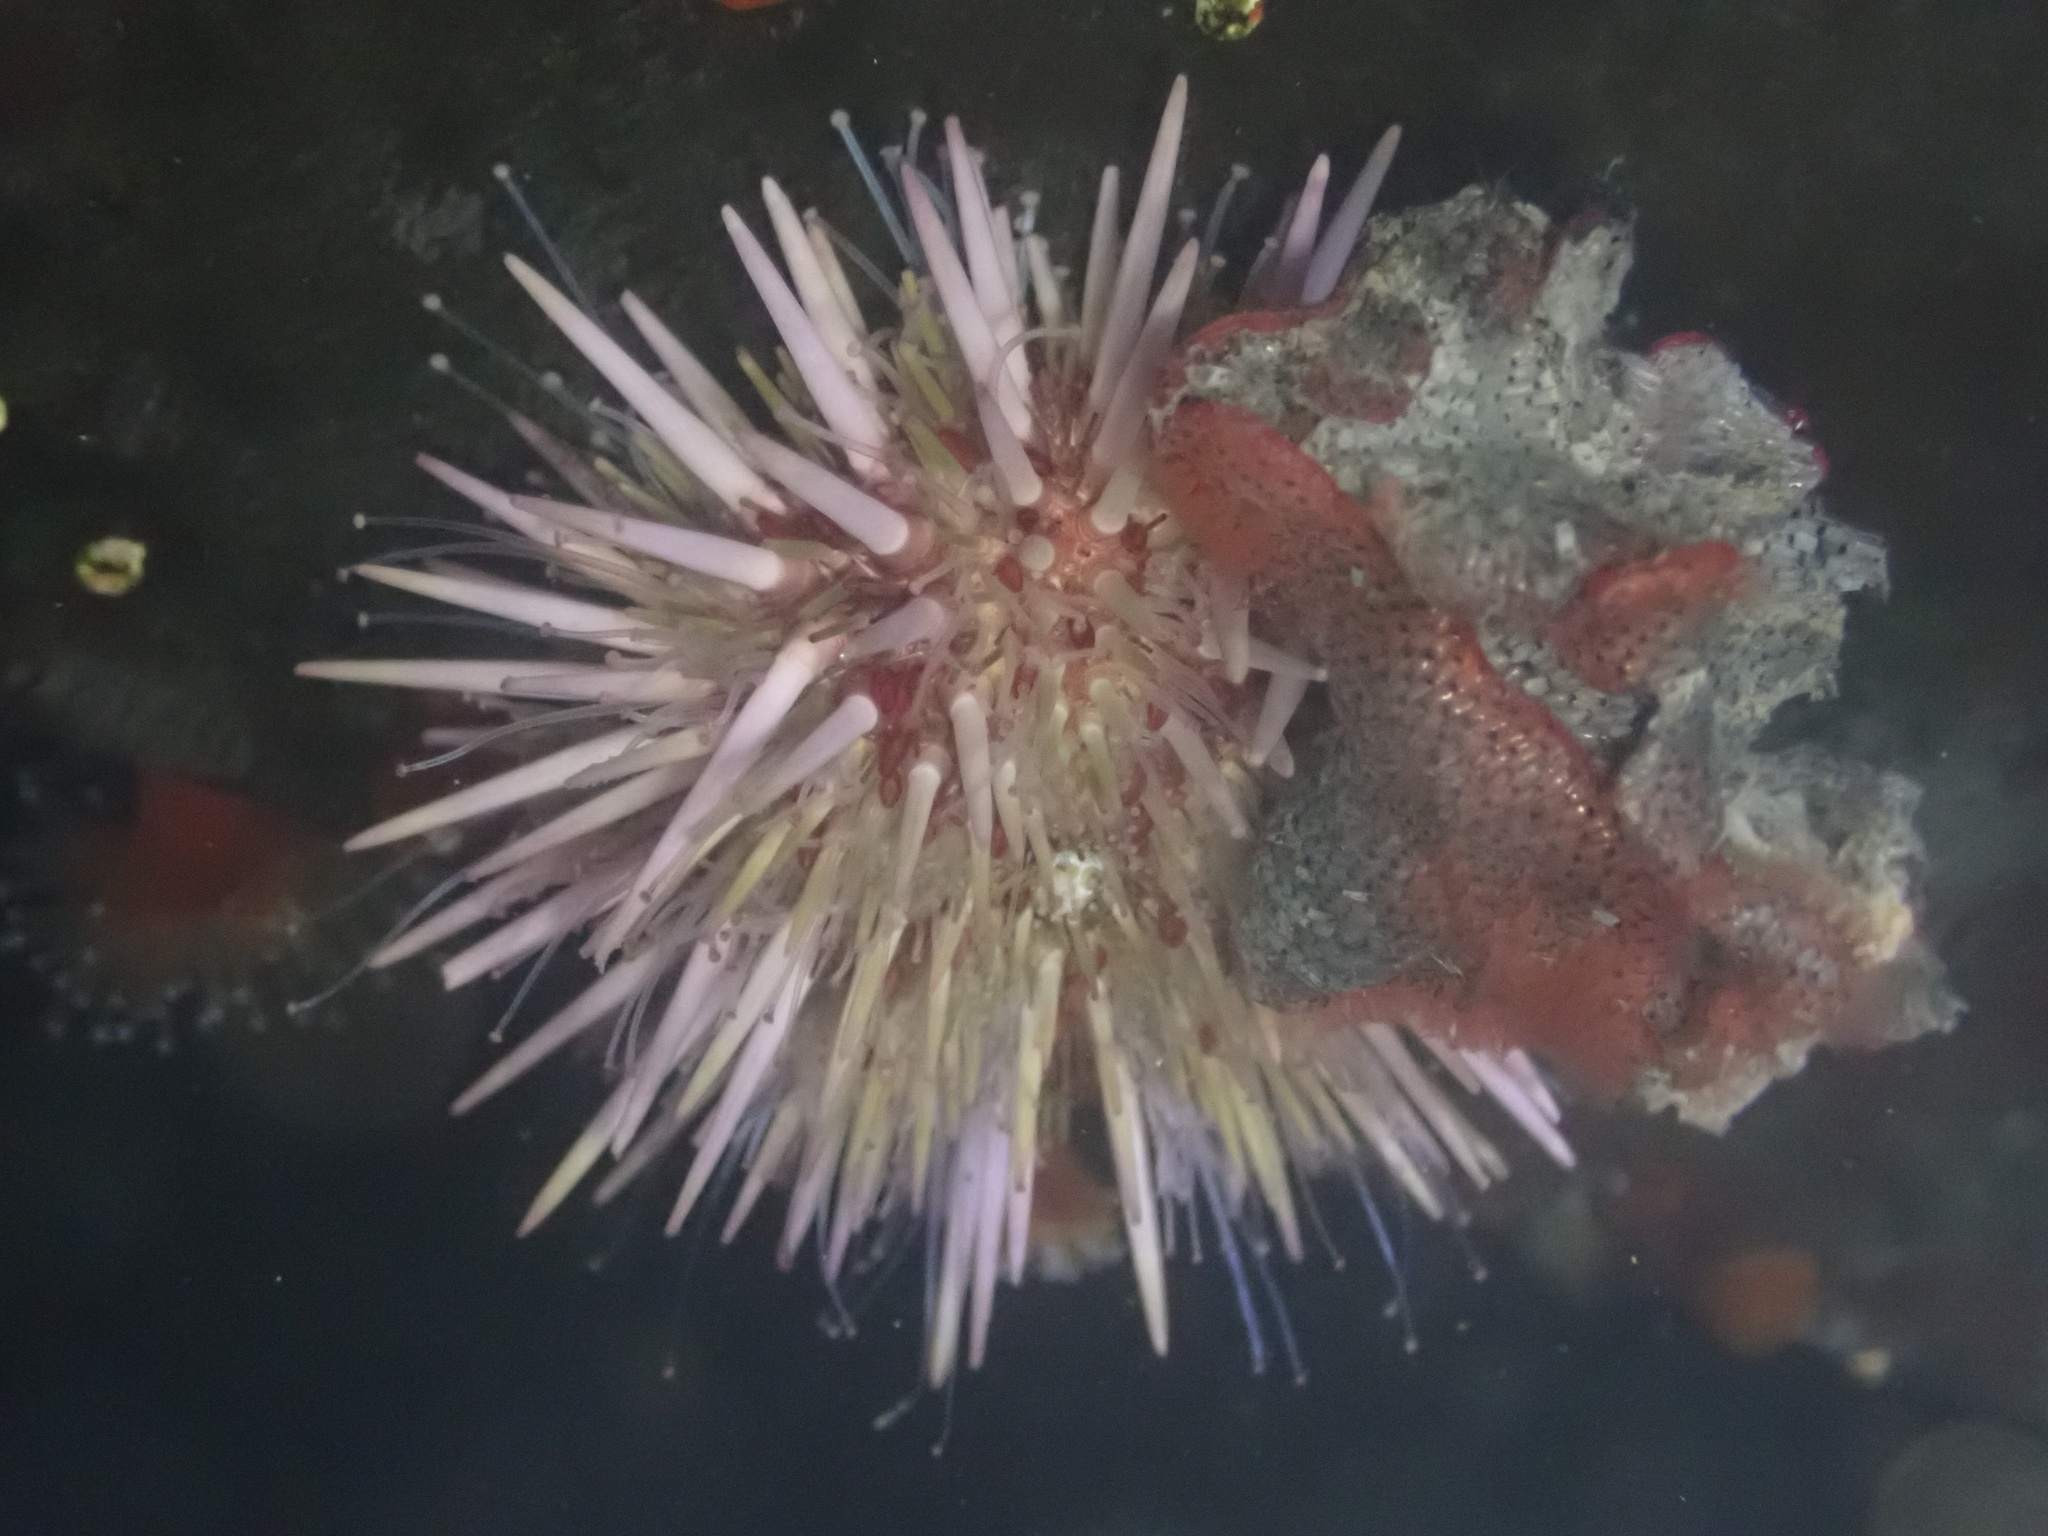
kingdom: Animalia
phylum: Echinodermata
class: Echinoidea
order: Camarodonta
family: Strongylocentrotidae
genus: Strongylocentrotus
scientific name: Strongylocentrotus purpuratus
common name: Purple sea urchin
